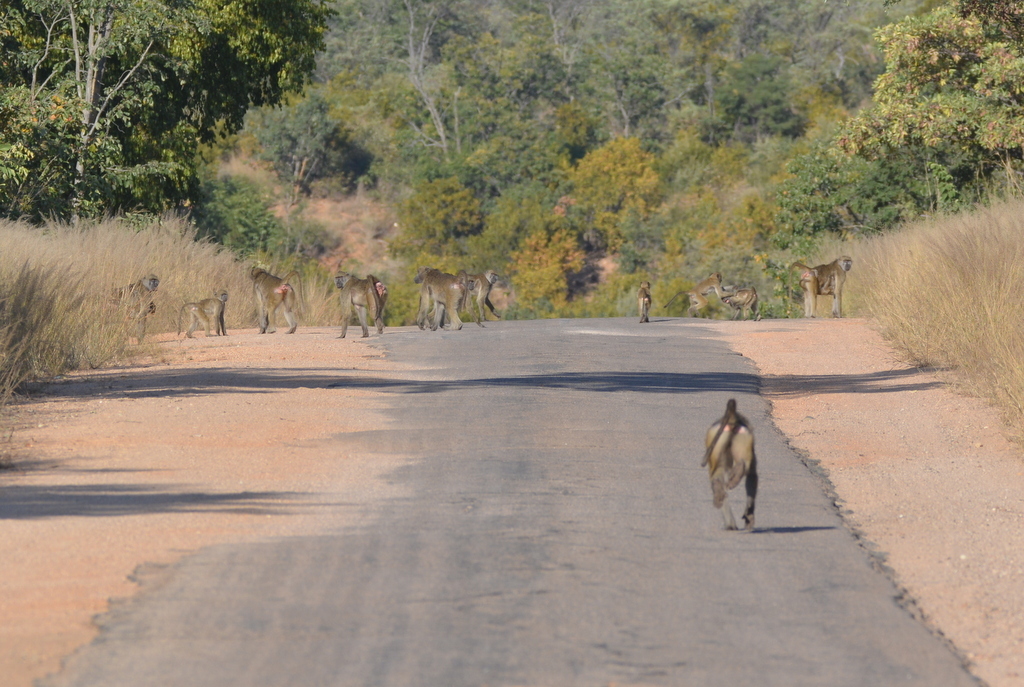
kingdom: Animalia
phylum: Chordata
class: Mammalia
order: Primates
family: Cercopithecidae
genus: Papio
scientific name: Papio ursinus
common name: Chacma baboon
